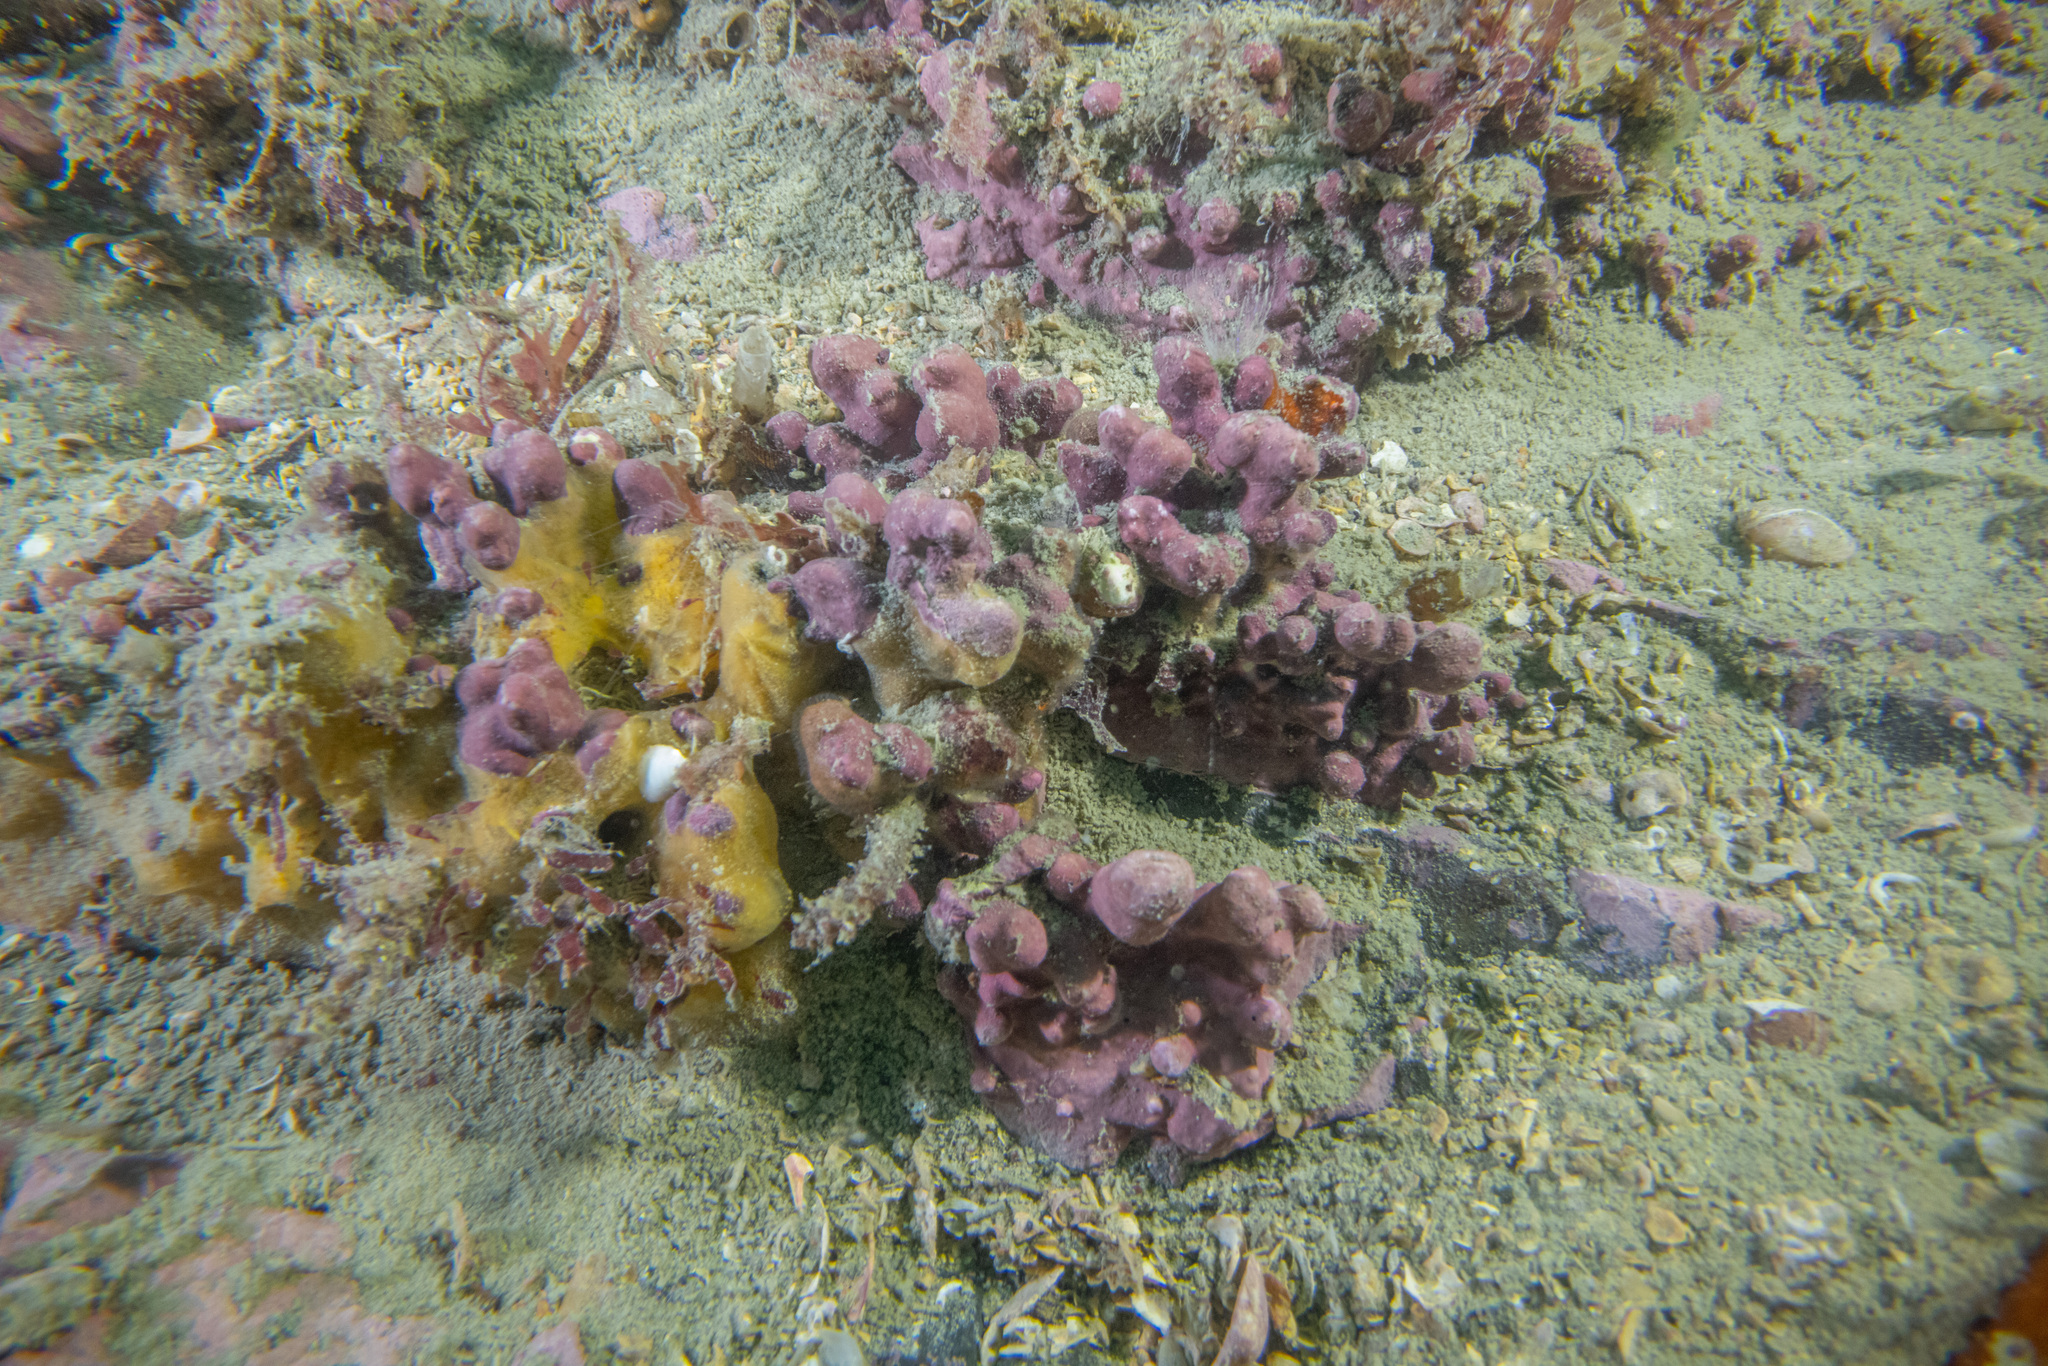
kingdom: Plantae
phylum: Rhodophyta
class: Florideophyceae
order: Corallinales
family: Sporolithaceae
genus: Sporolithon
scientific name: Sporolithon durum
